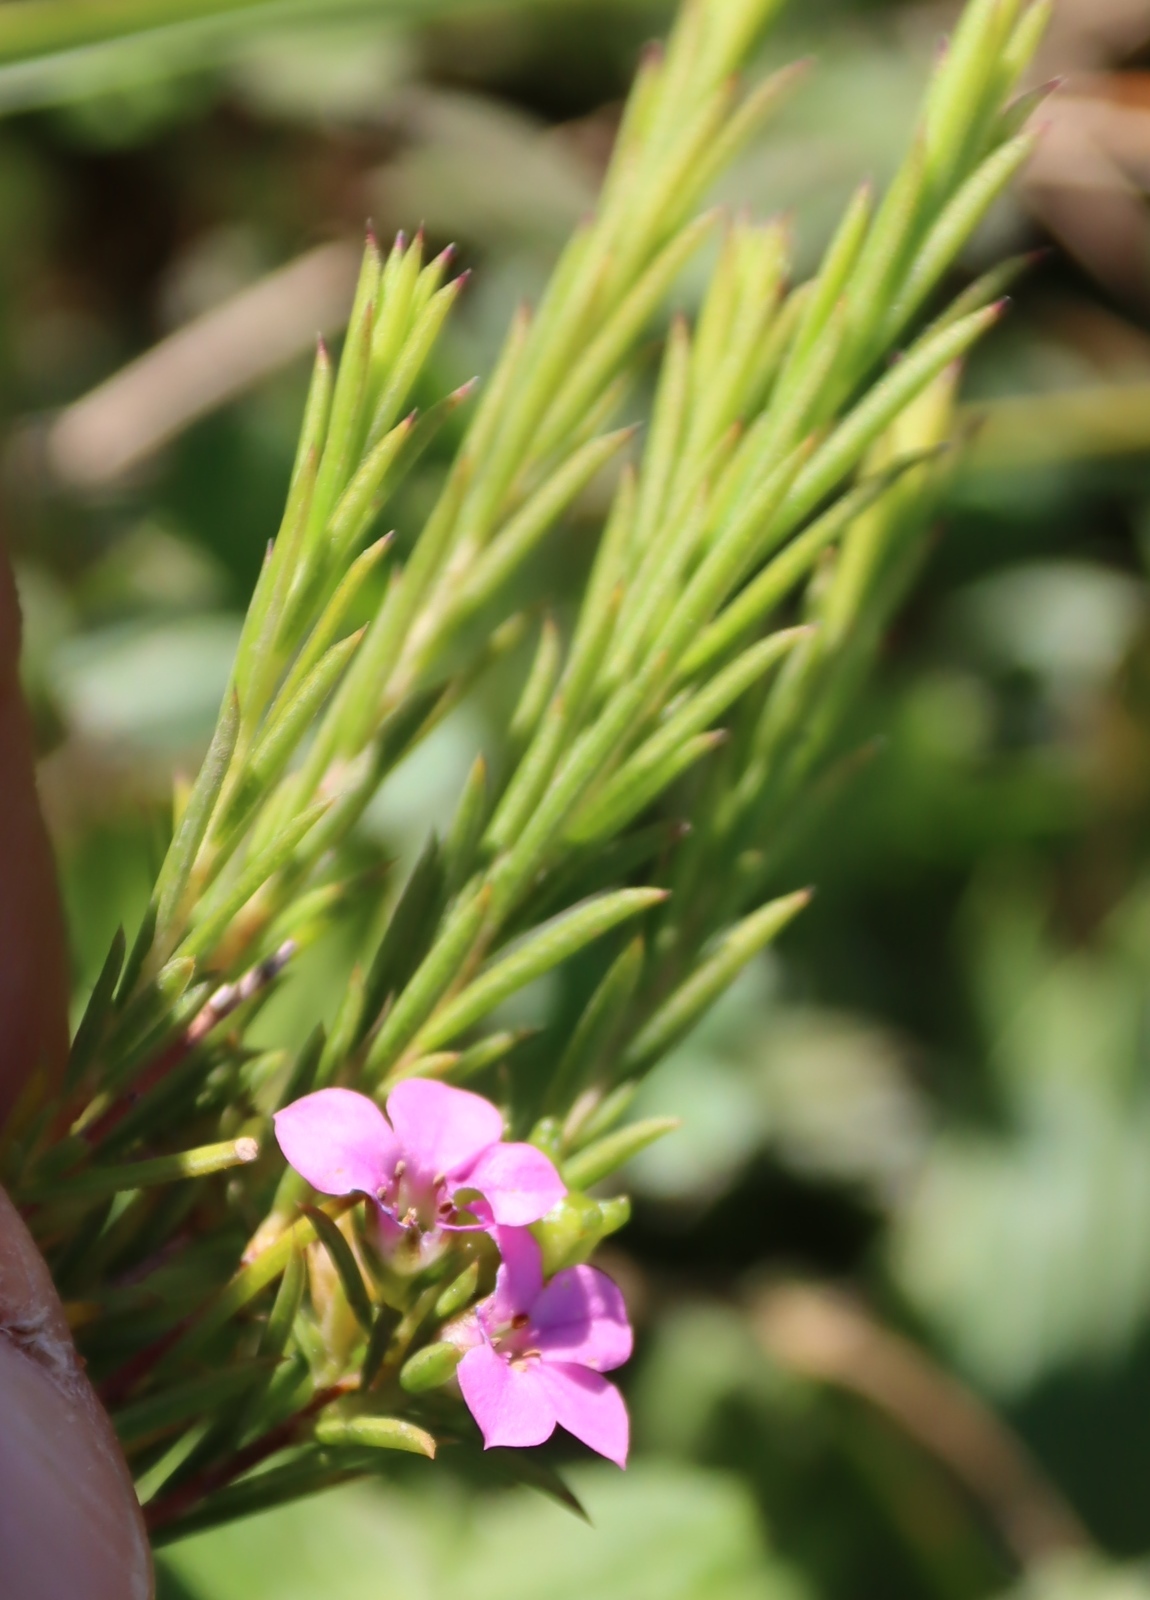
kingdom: Plantae
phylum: Tracheophyta
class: Magnoliopsida
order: Sapindales
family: Rutaceae
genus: Coleonema
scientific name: Coleonema pulchellum
